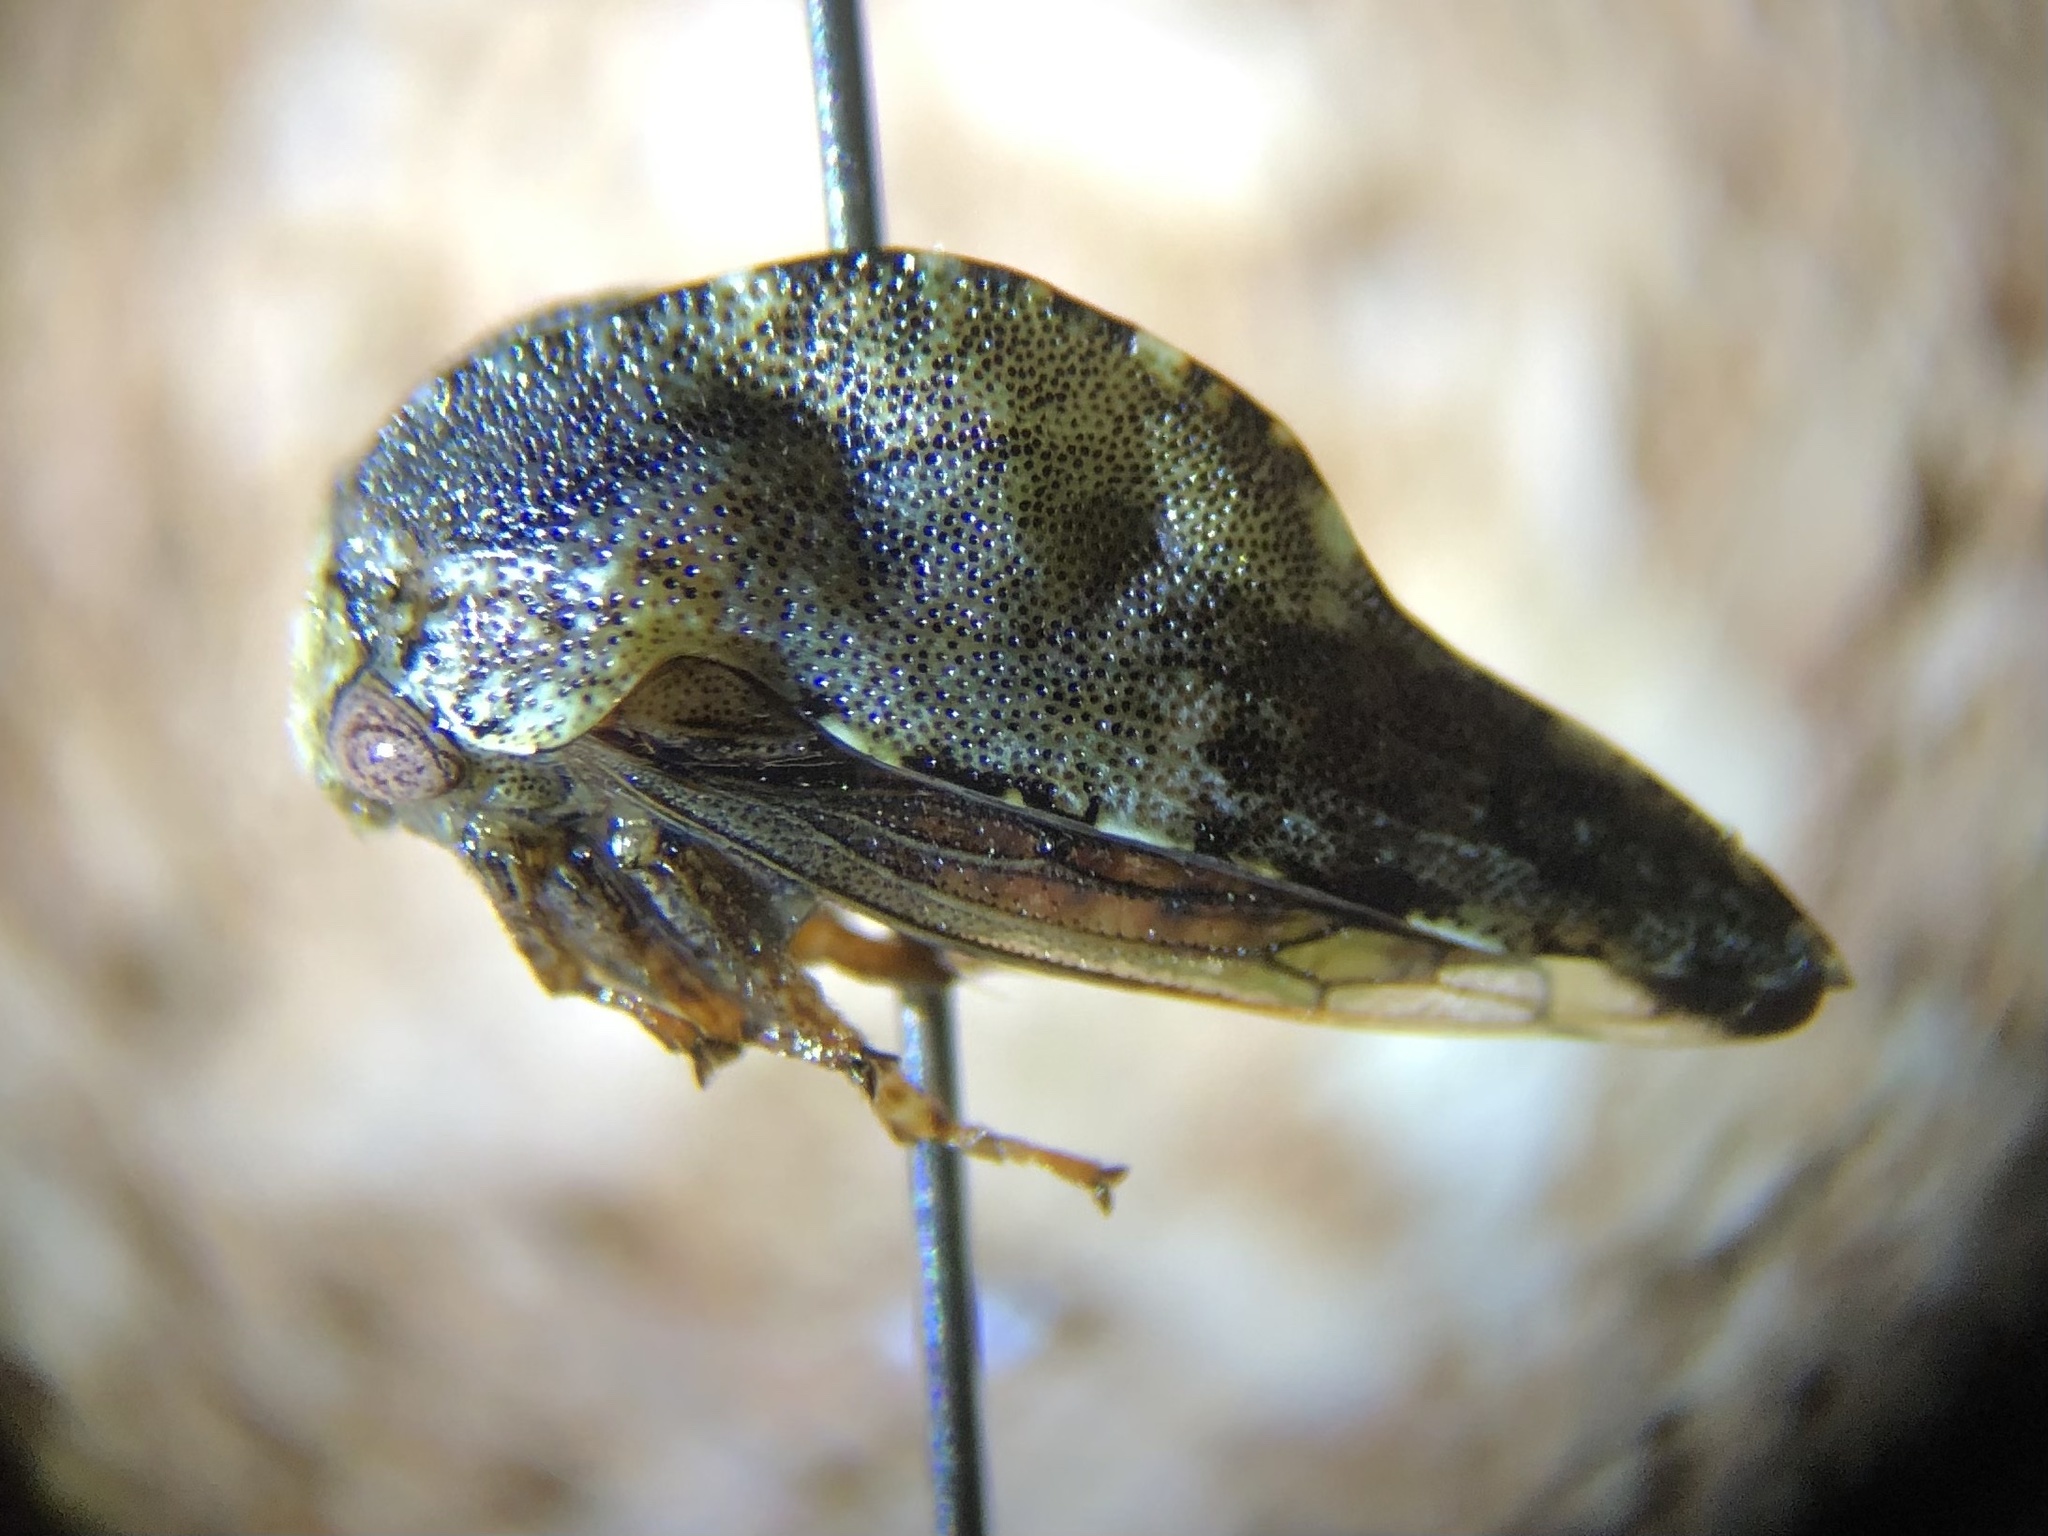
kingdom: Animalia
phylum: Arthropoda
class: Insecta
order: Hemiptera
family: Membracidae
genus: Telamona
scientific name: Telamona westcotti
